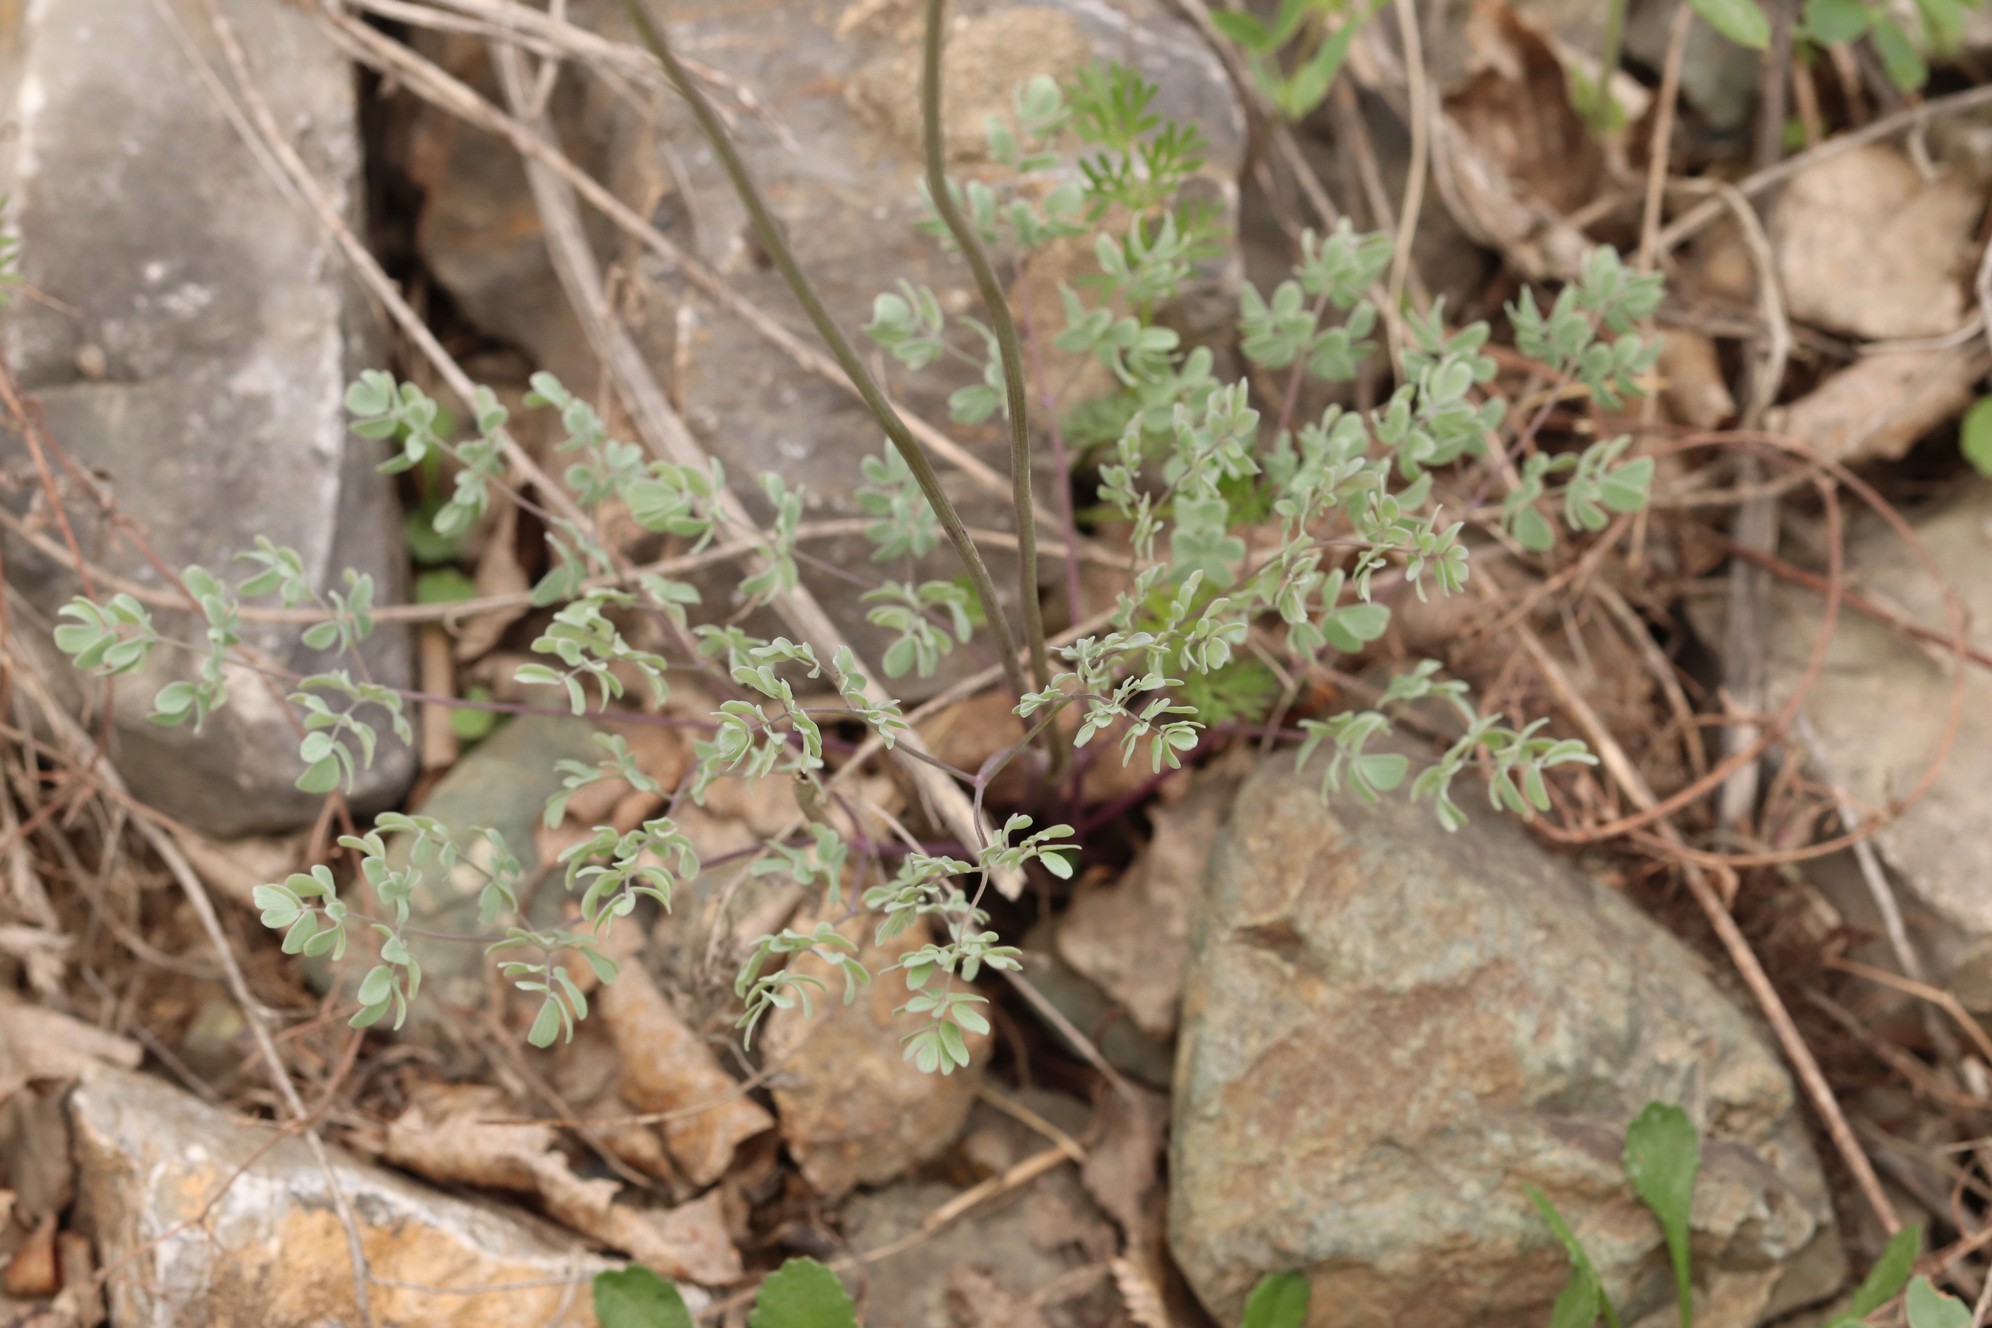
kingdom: Plantae
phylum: Tracheophyta
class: Magnoliopsida
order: Ranunculales
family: Ranunculaceae
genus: Thalictrum
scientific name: Thalictrum petaloideum
